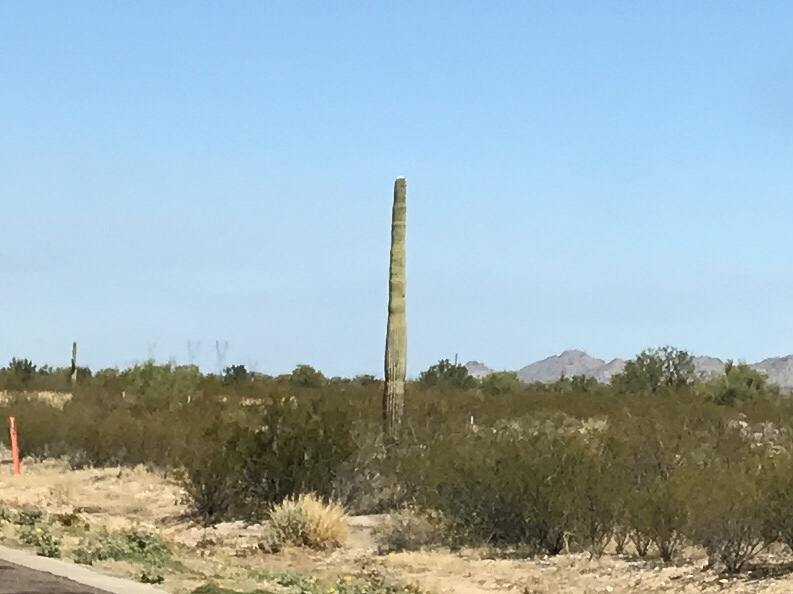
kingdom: Plantae
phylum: Tracheophyta
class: Magnoliopsida
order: Caryophyllales
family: Cactaceae
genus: Carnegiea
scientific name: Carnegiea gigantea
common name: Saguaro
